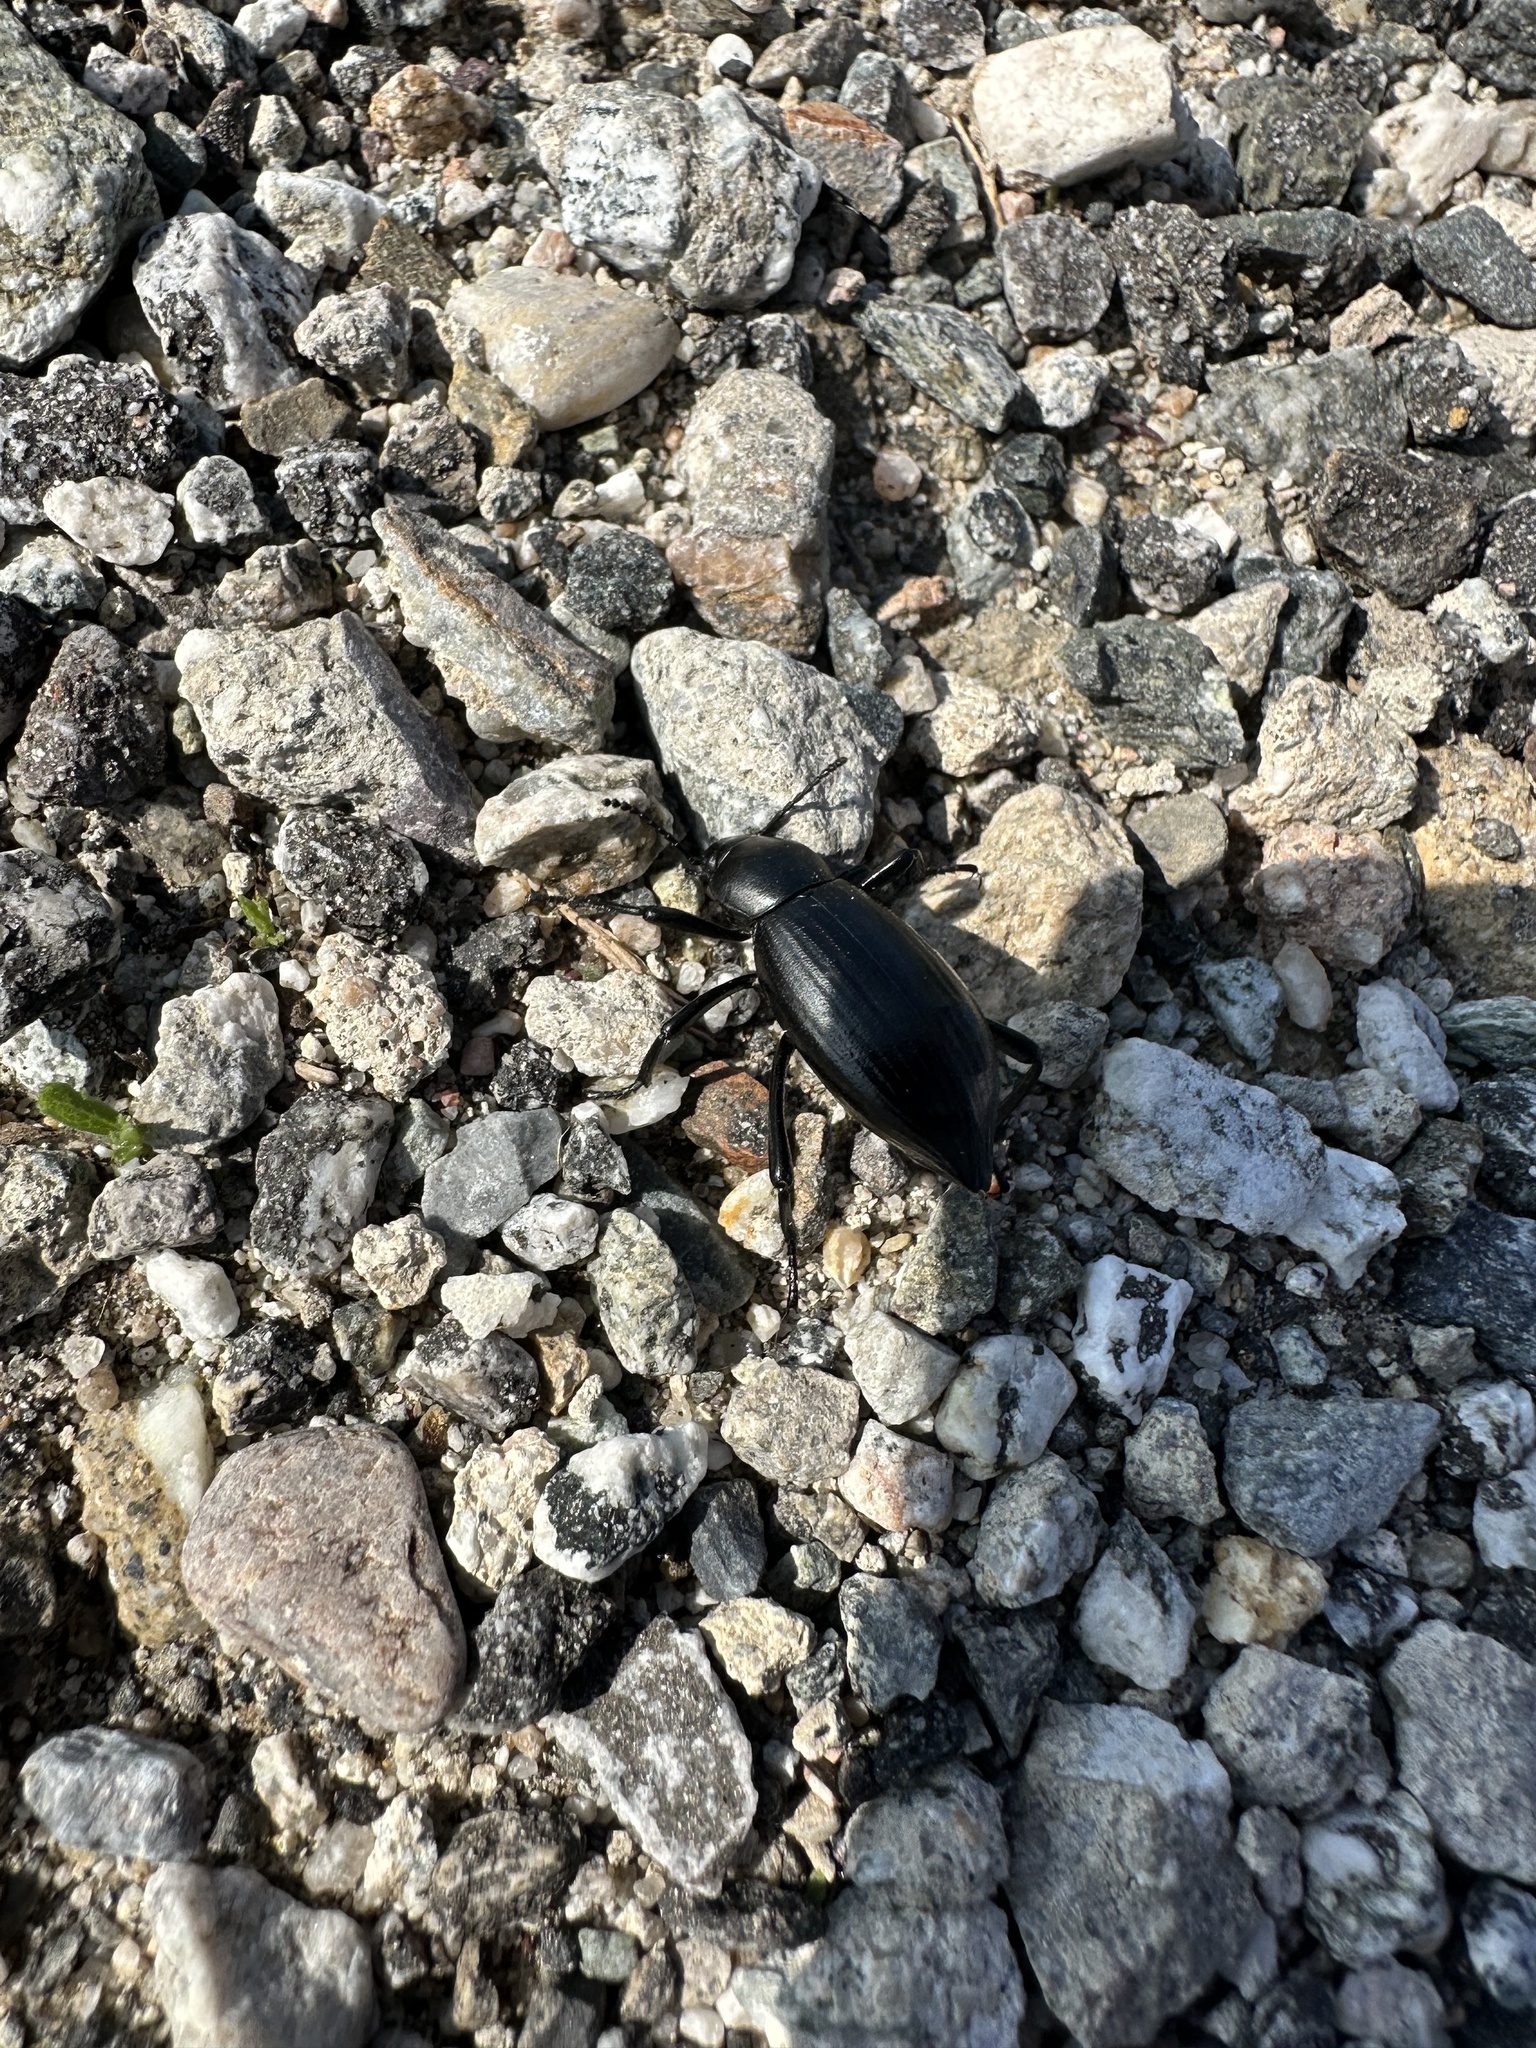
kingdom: Animalia
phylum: Arthropoda
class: Insecta
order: Coleoptera
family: Tenebrionidae
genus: Eleodes
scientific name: Eleodes gracilis
